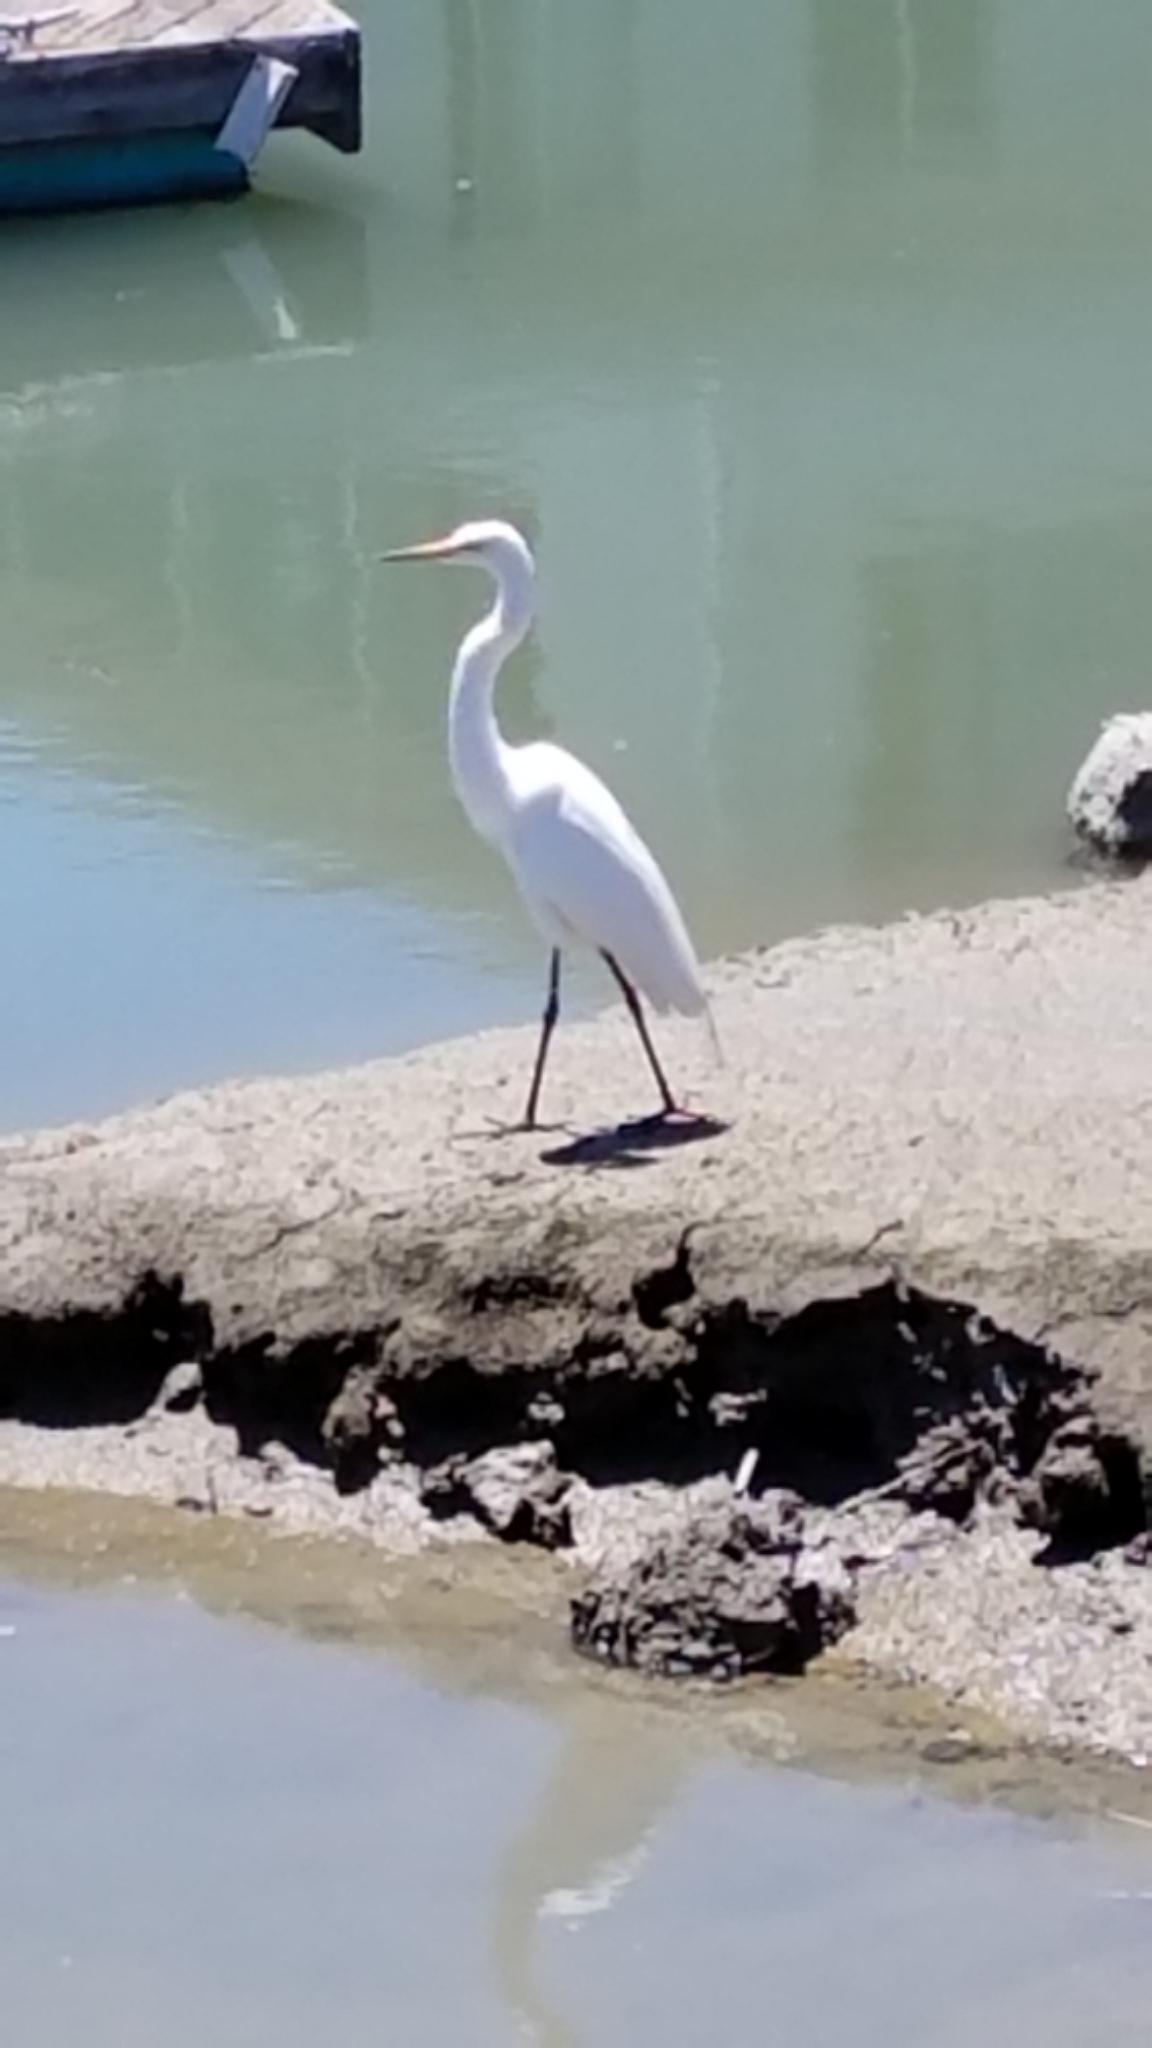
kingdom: Animalia
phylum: Chordata
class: Aves
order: Pelecaniformes
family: Ardeidae
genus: Ardea
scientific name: Ardea alba
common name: Great egret
